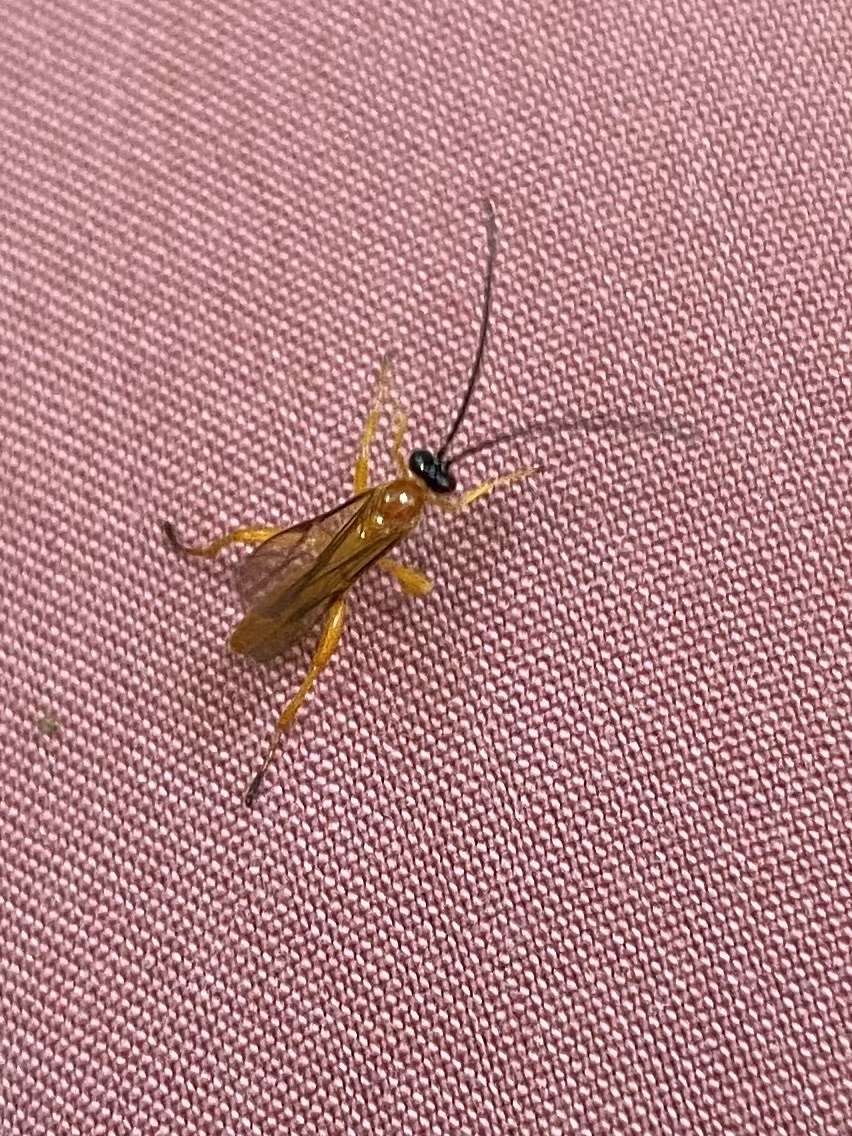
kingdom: Animalia
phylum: Arthropoda
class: Insecta
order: Hymenoptera
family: Ichneumonidae
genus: Theronia
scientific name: Theronia hilaris
